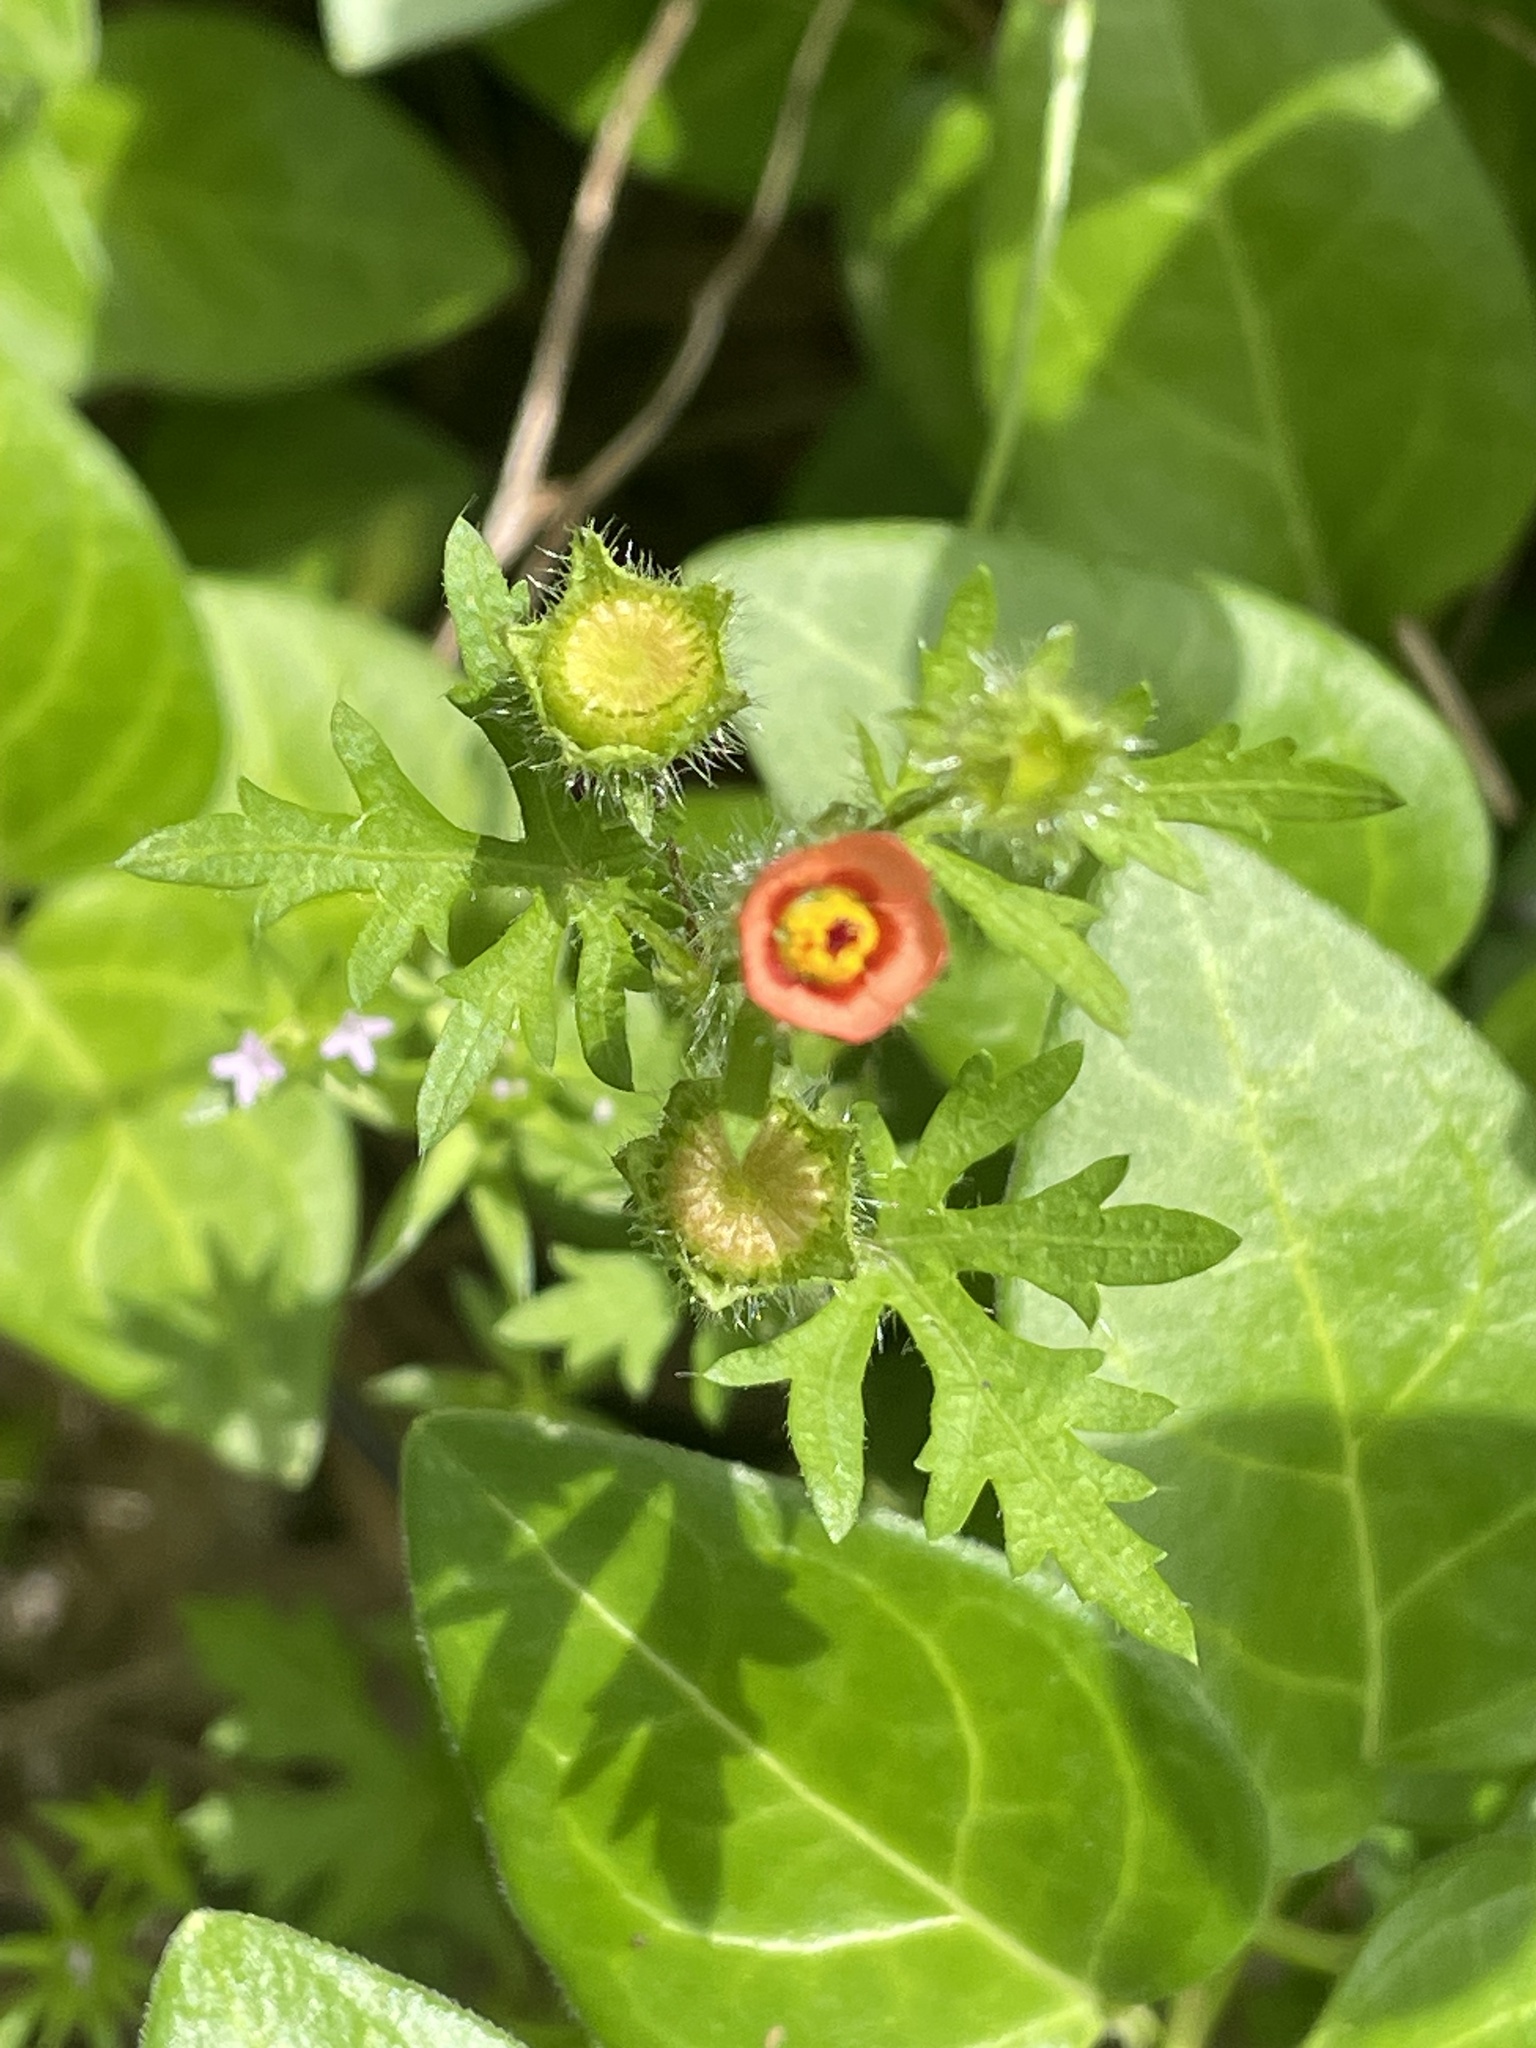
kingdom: Plantae
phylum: Tracheophyta
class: Magnoliopsida
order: Malvales
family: Malvaceae
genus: Modiola
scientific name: Modiola caroliniana
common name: Carolina bristlemallow
